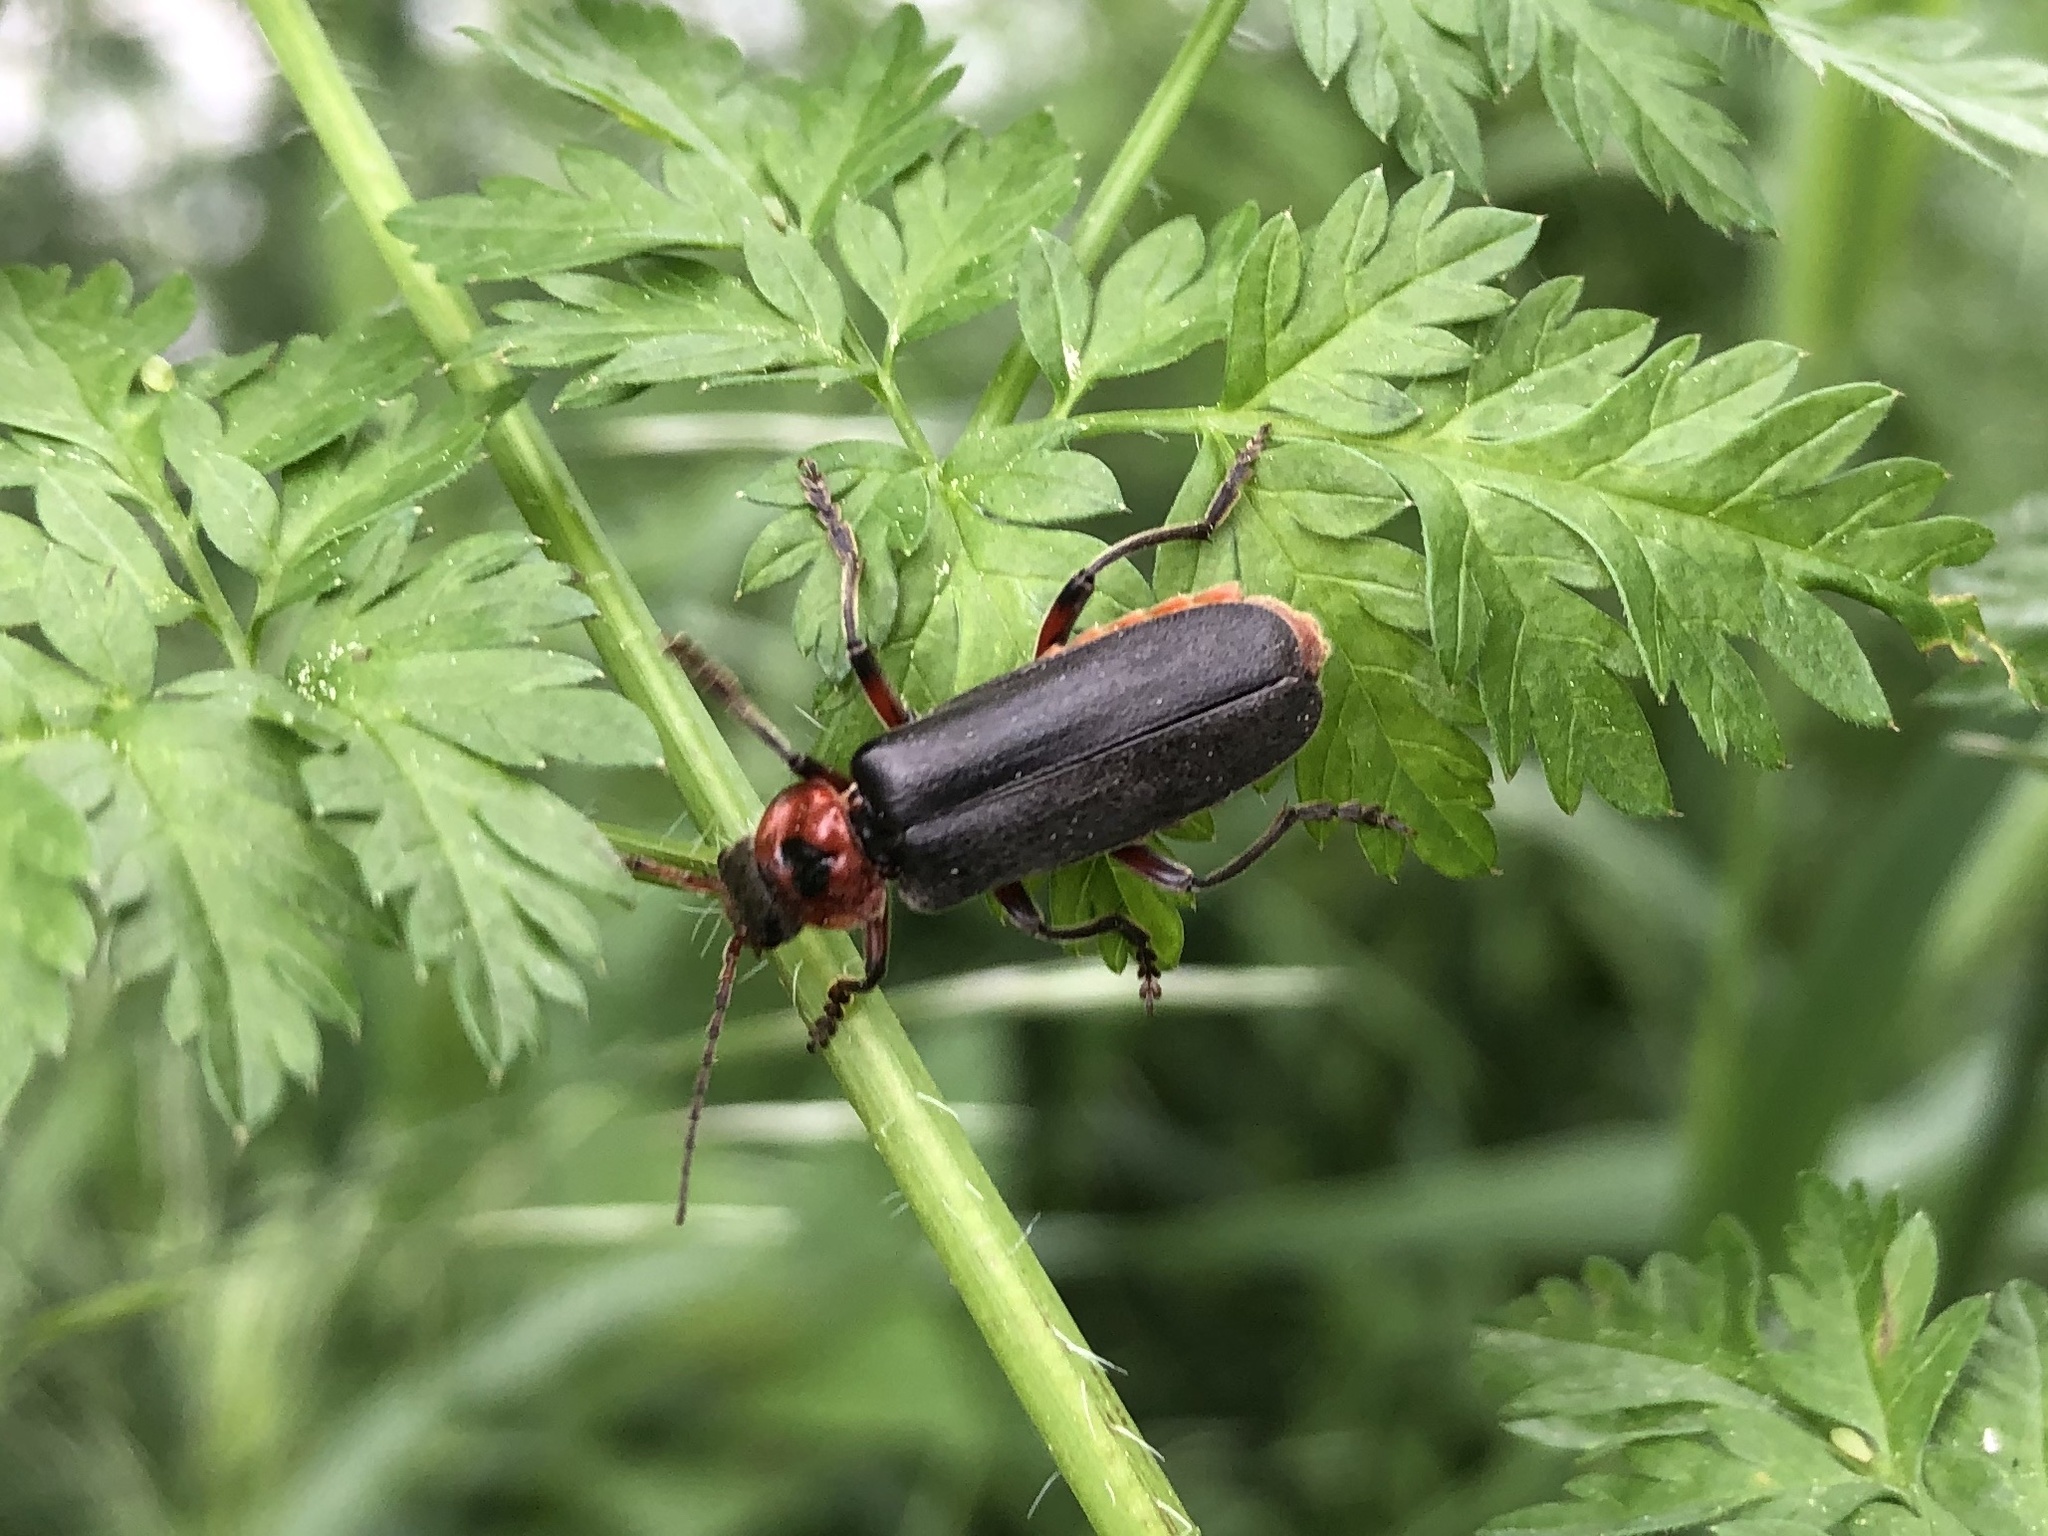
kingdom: Animalia
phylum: Arthropoda
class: Insecta
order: Coleoptera
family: Cantharidae
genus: Cantharis
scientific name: Cantharis rustica
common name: Soldier beetle
